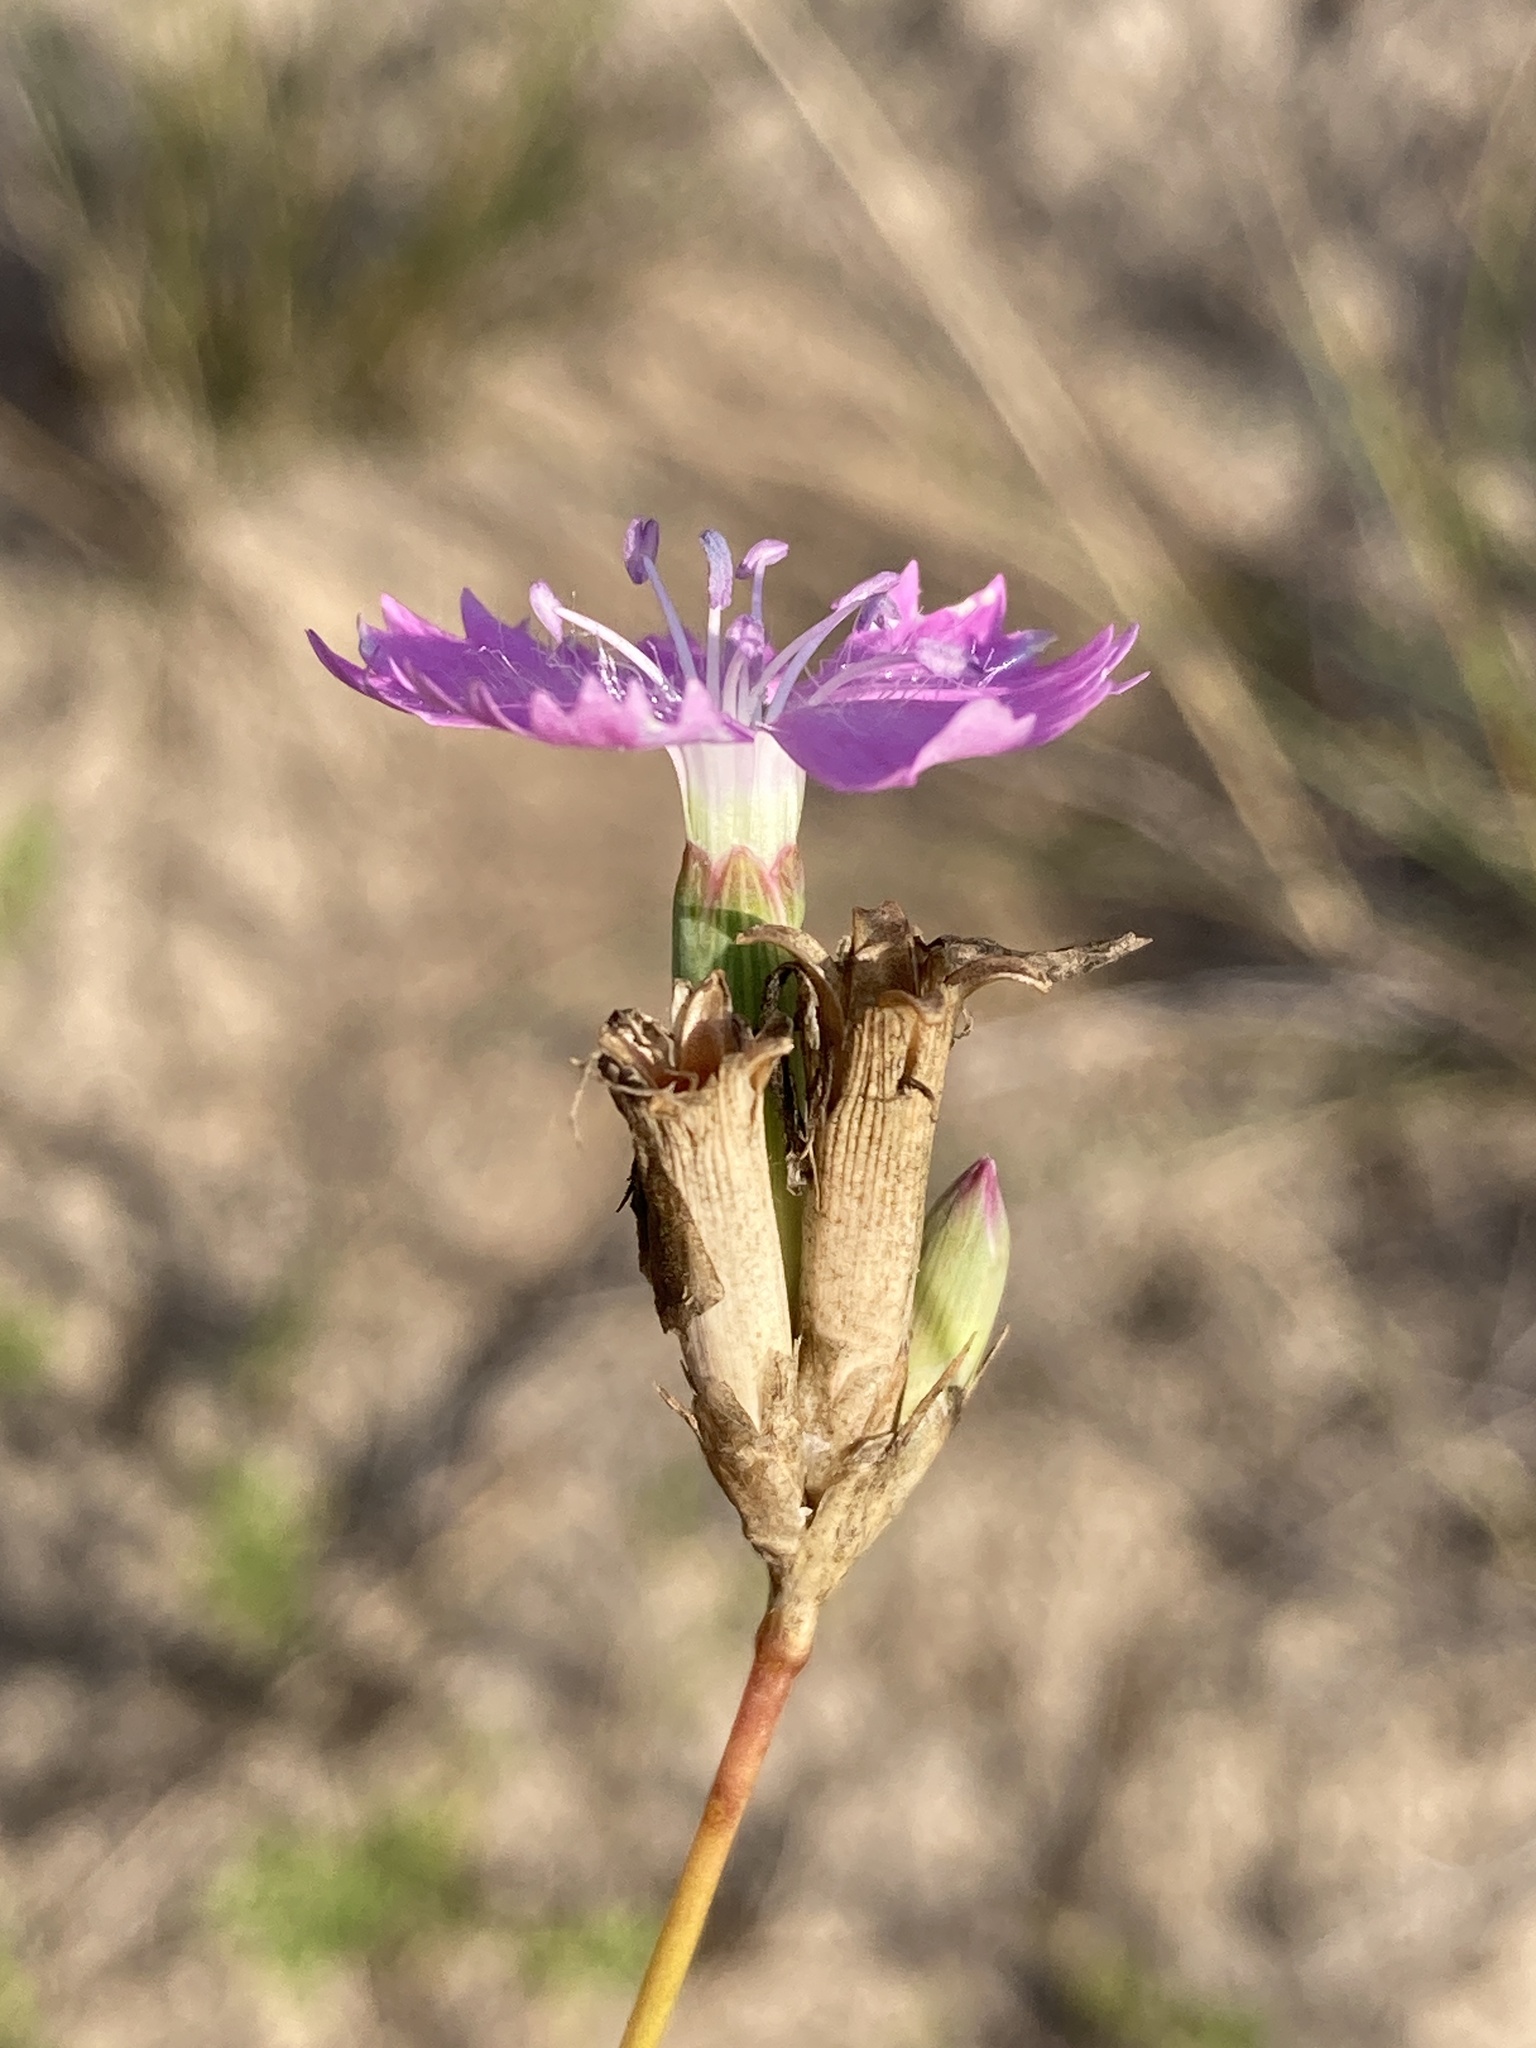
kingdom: Plantae
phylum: Tracheophyta
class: Magnoliopsida
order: Caryophyllales
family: Caryophyllaceae
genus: Dianthus
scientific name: Dianthus polymorphus
